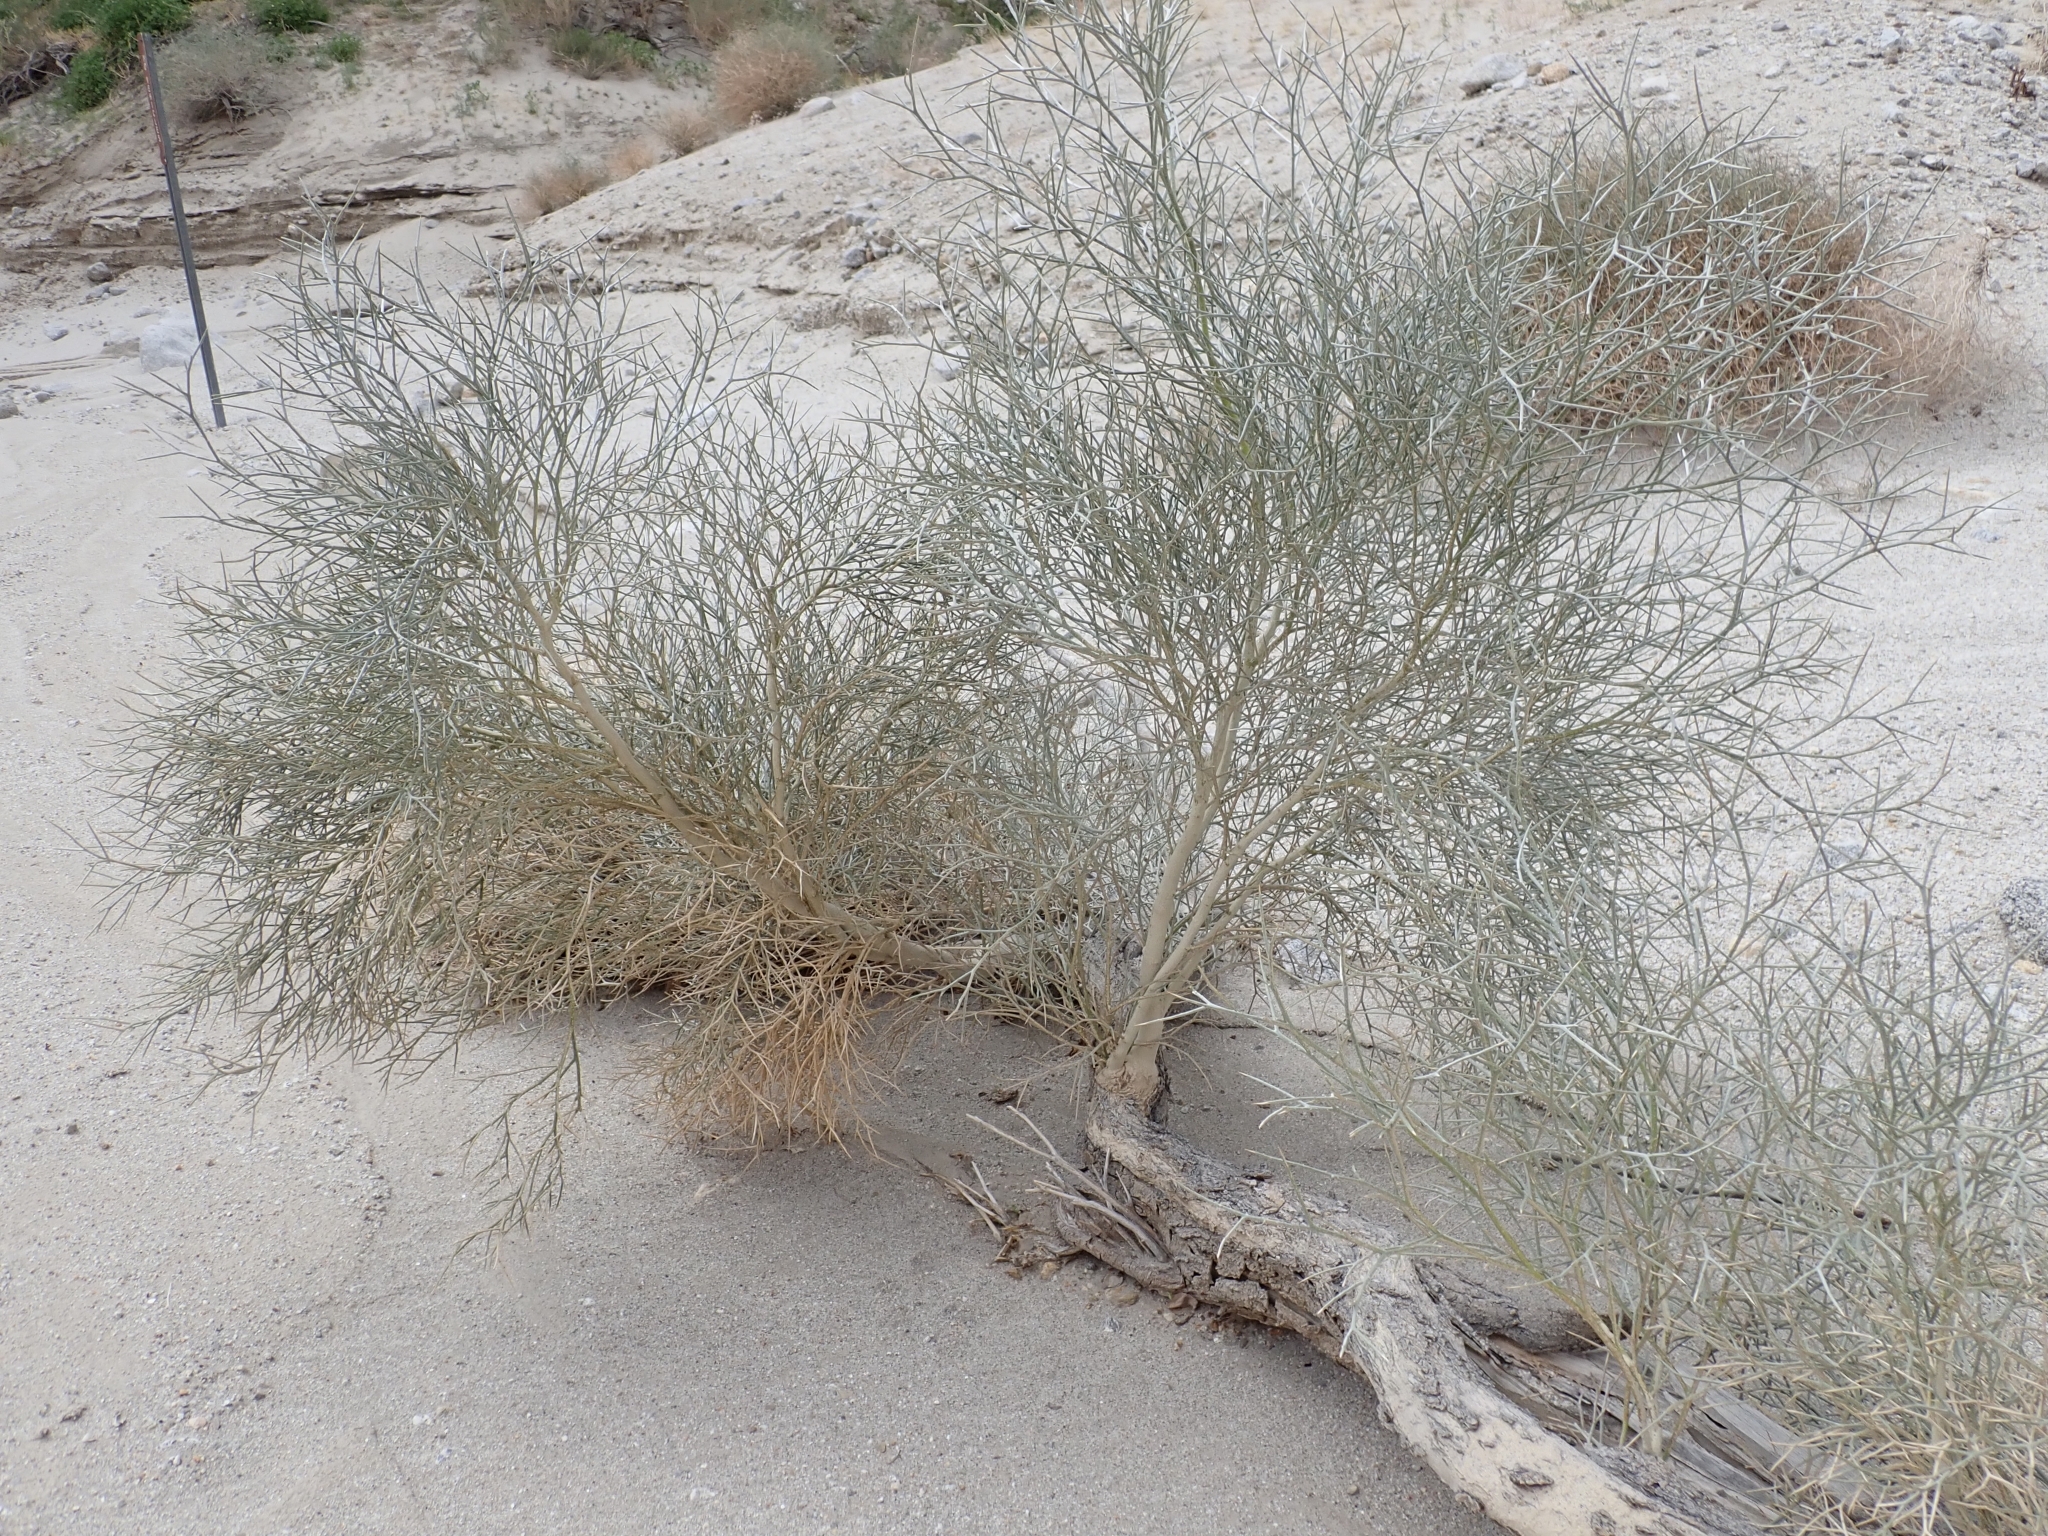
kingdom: Plantae
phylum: Tracheophyta
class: Magnoliopsida
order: Fabales
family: Fabaceae
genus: Psorothamnus
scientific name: Psorothamnus spinosus
